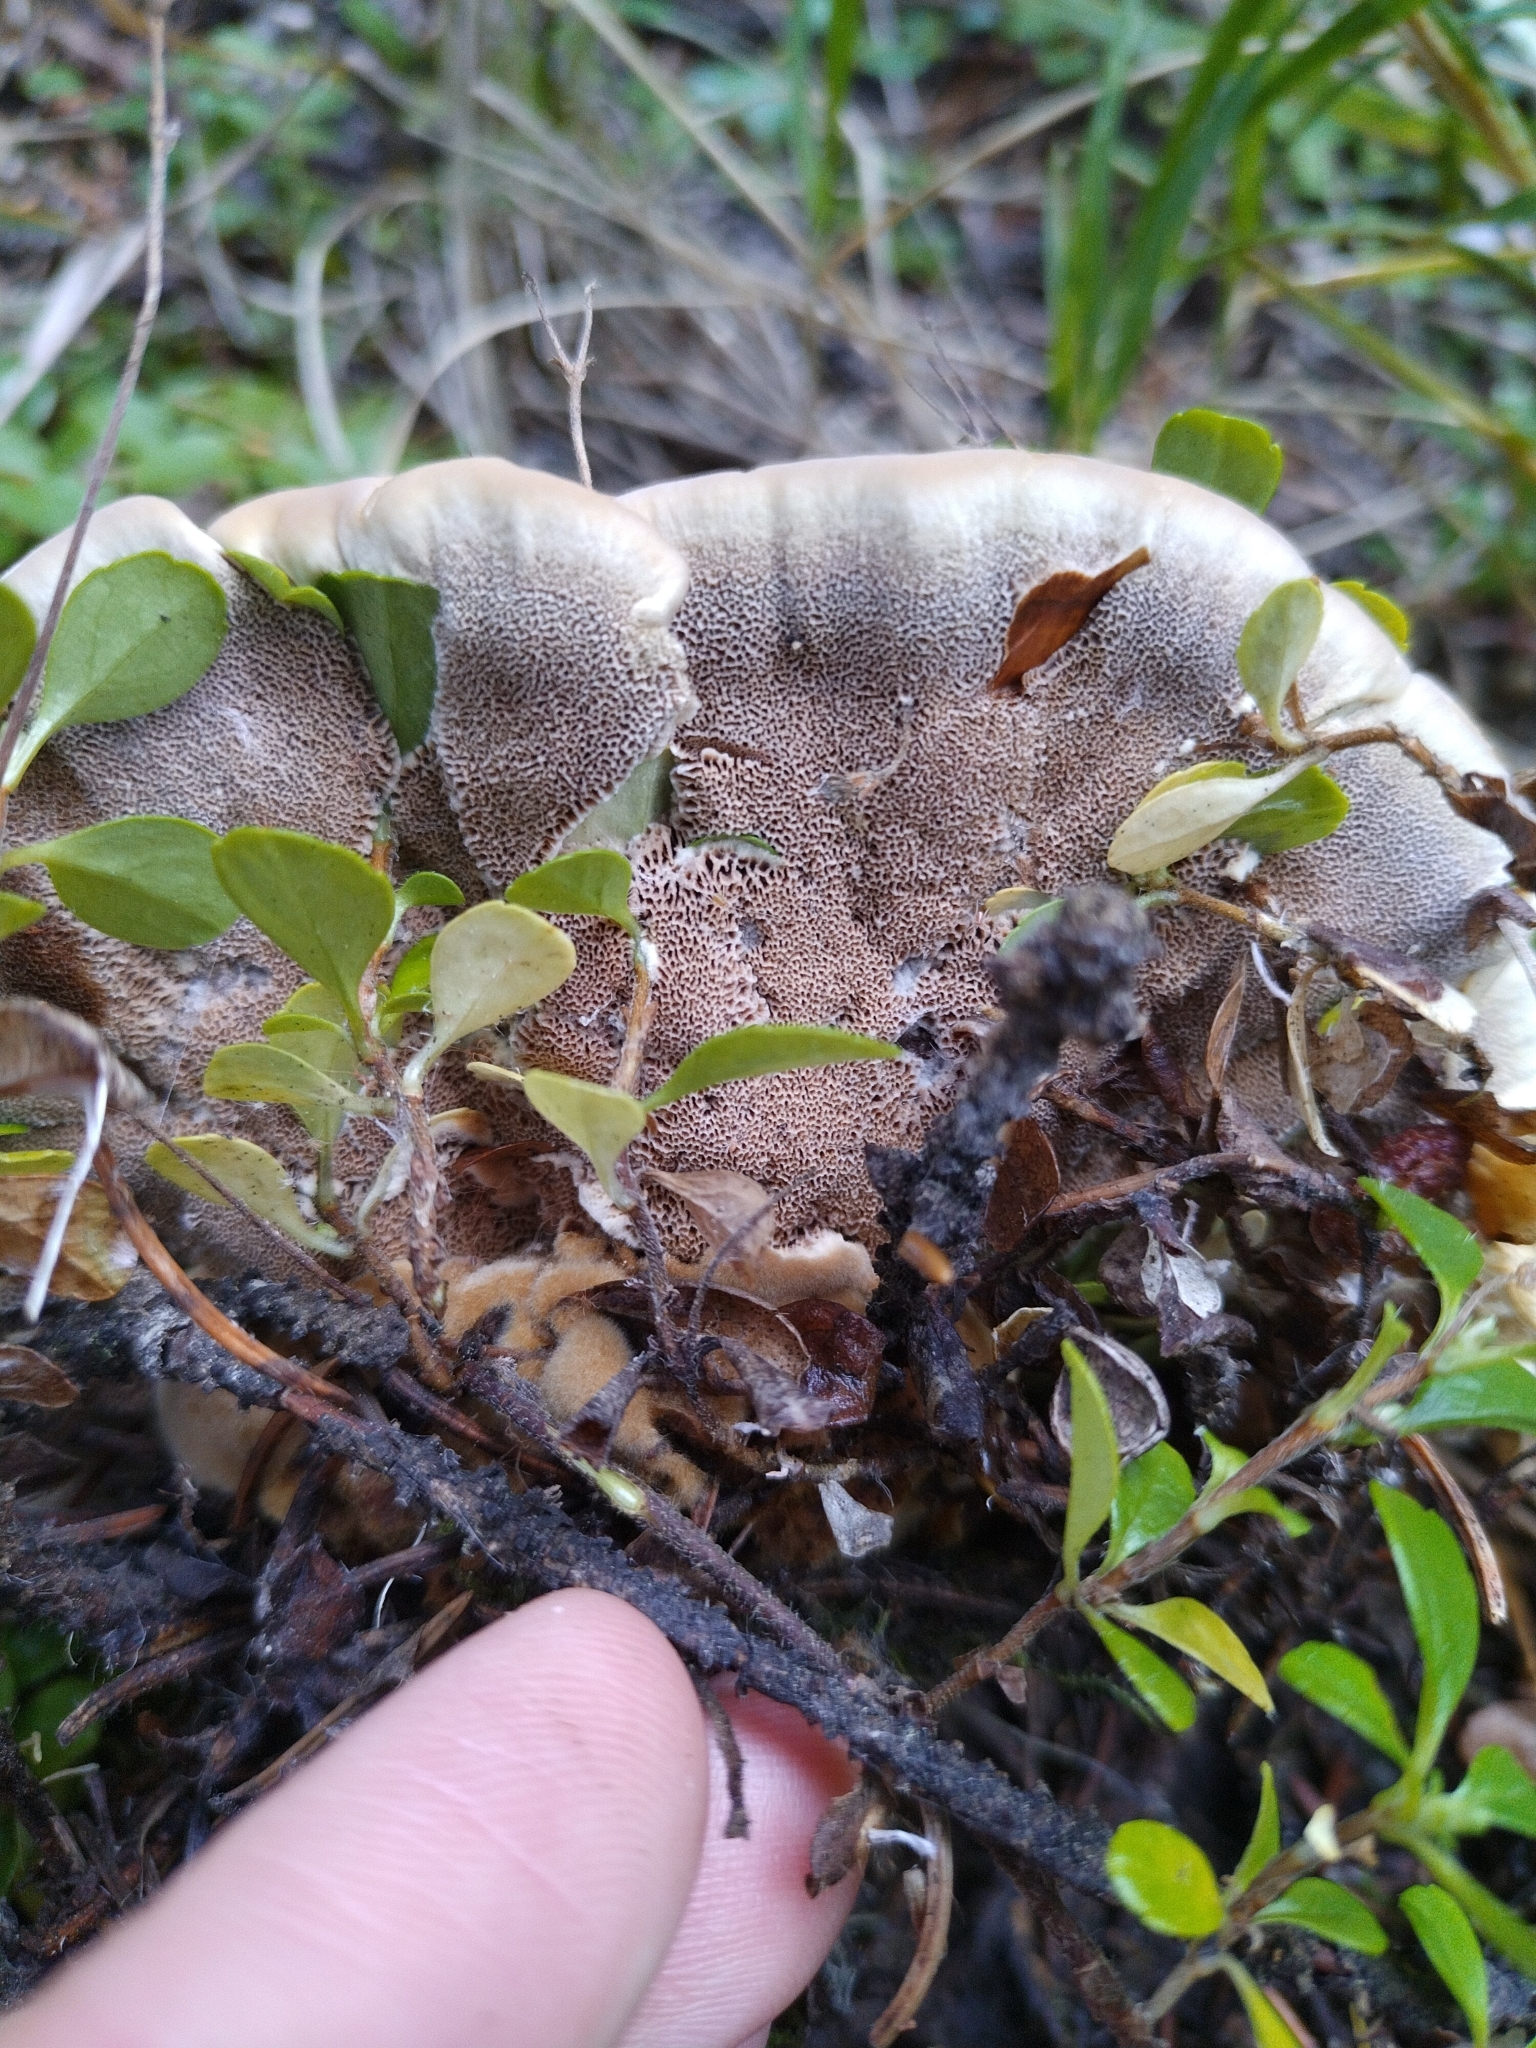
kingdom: Fungi
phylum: Basidiomycota
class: Agaricomycetes
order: Hymenochaetales
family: Hymenochaetaceae
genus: Onnia
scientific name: Onnia tomentosa
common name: Velvet rosette
